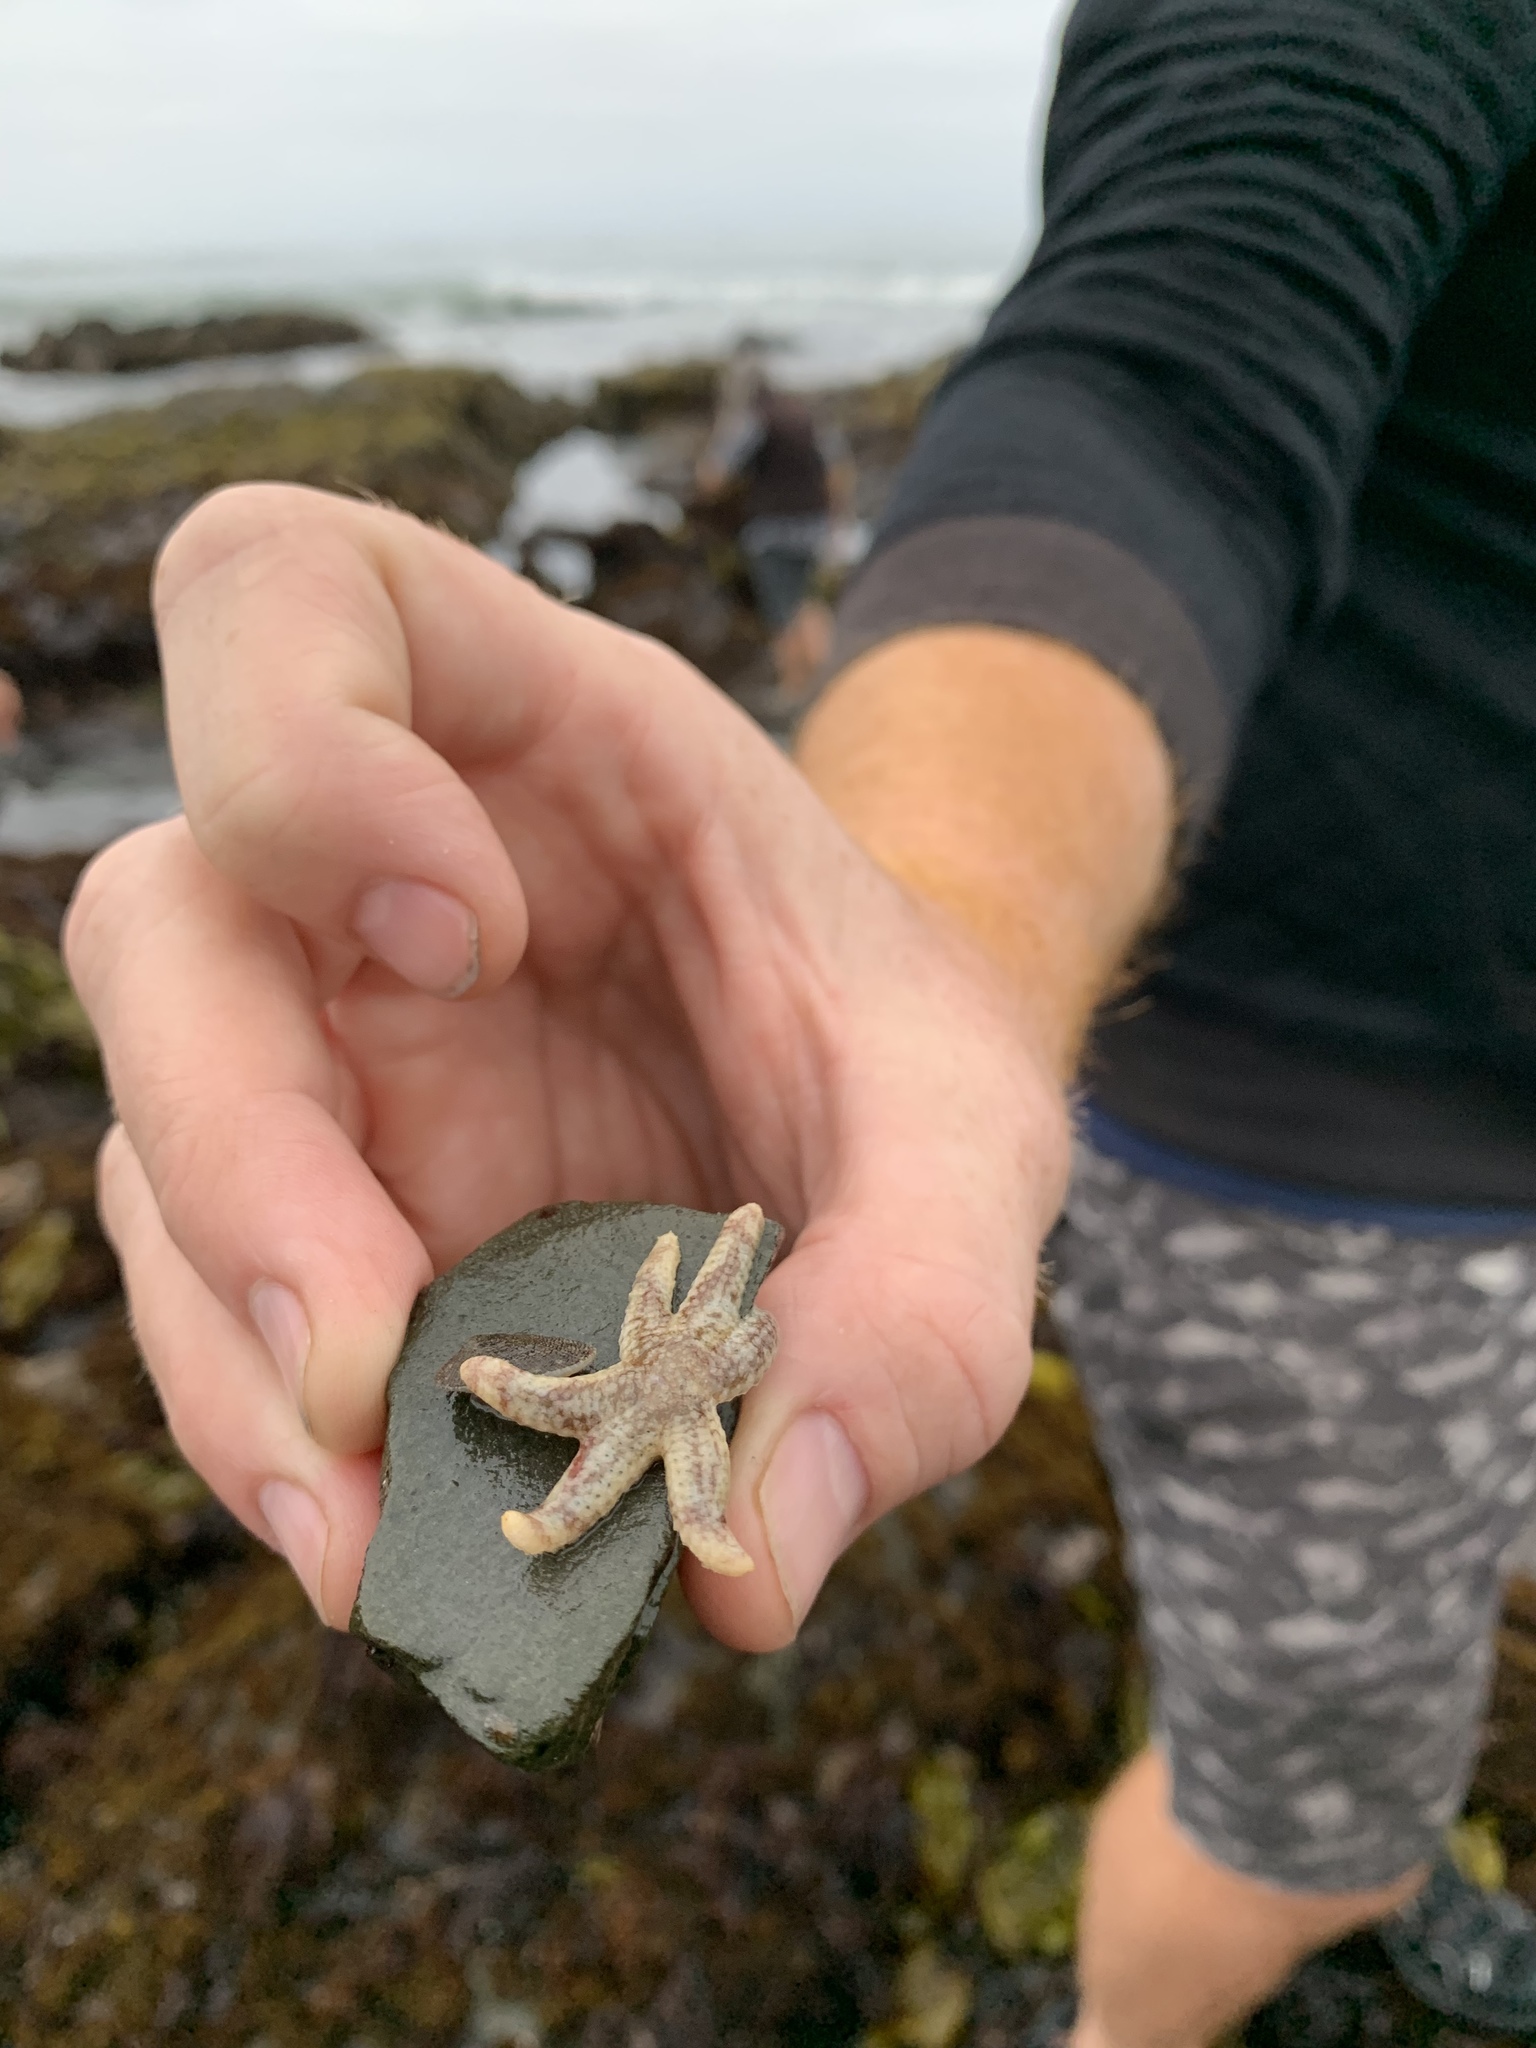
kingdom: Animalia
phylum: Echinodermata
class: Asteroidea
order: Forcipulatida
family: Asteriidae
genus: Leptasterias
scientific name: Leptasterias hexactis
